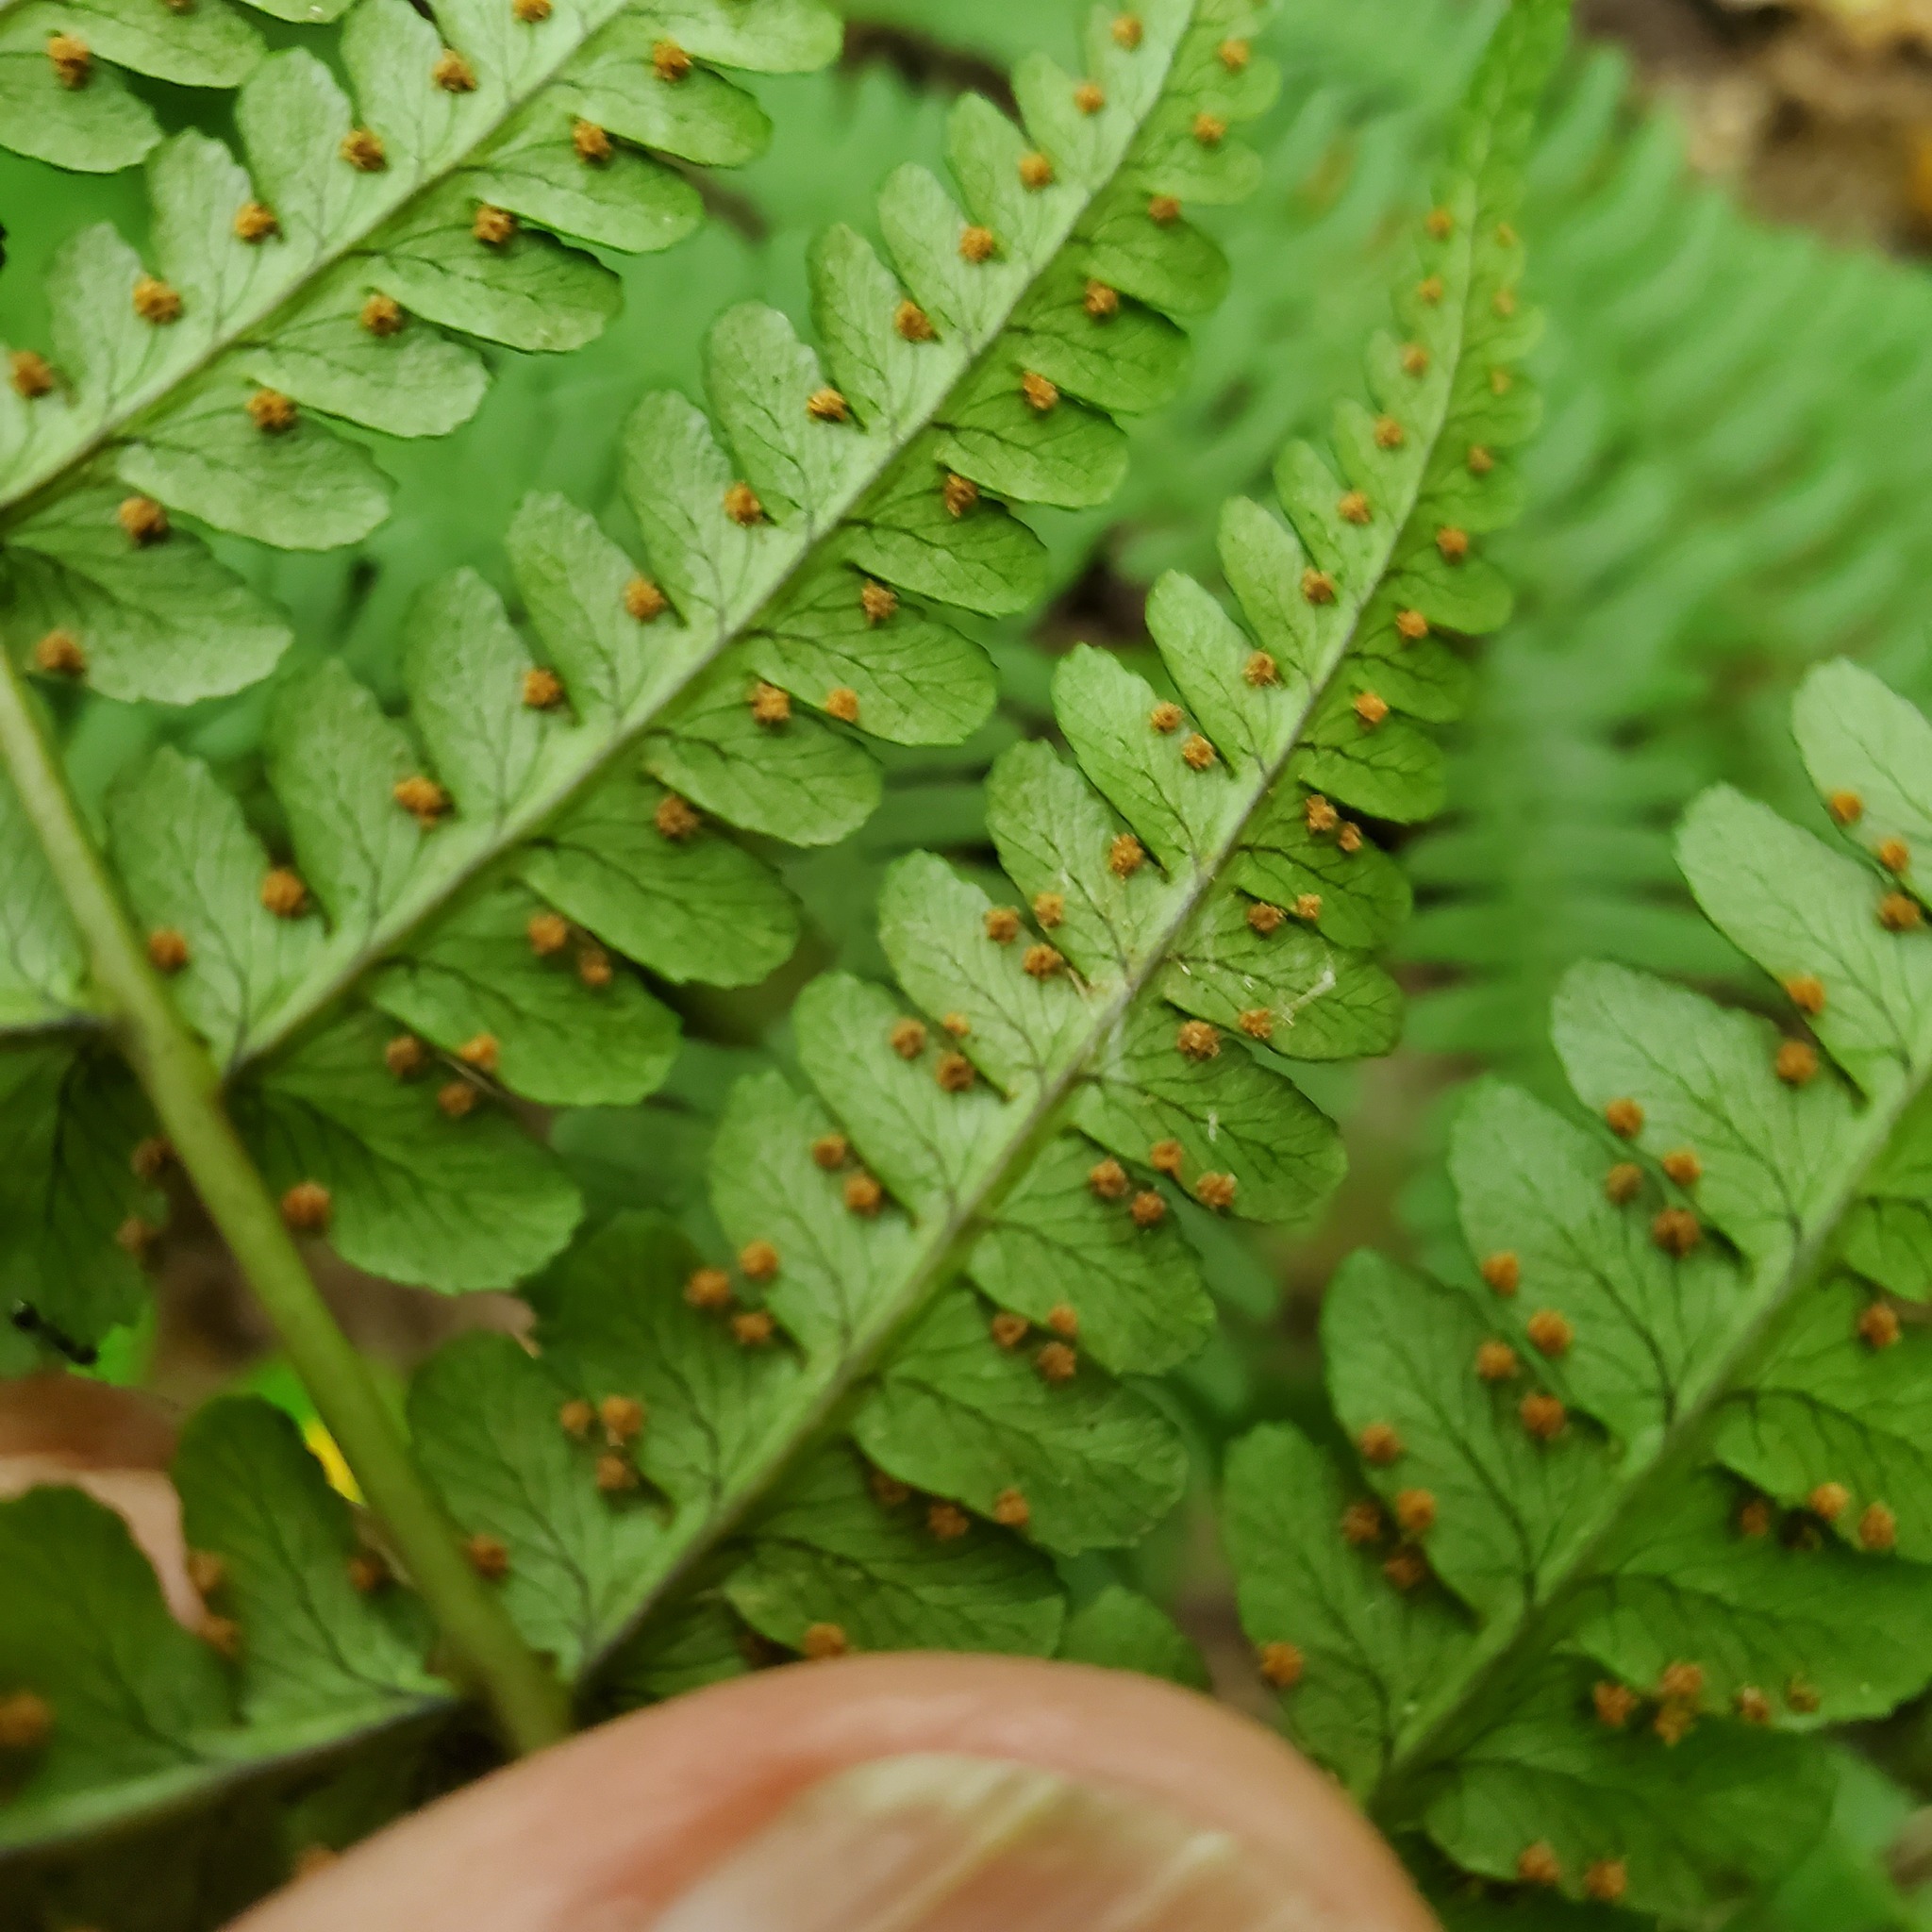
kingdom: Plantae
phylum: Tracheophyta
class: Polypodiopsida
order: Polypodiales
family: Dryopteridaceae
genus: Dryopteris
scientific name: Dryopteris marginalis
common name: Marginal wood fern
